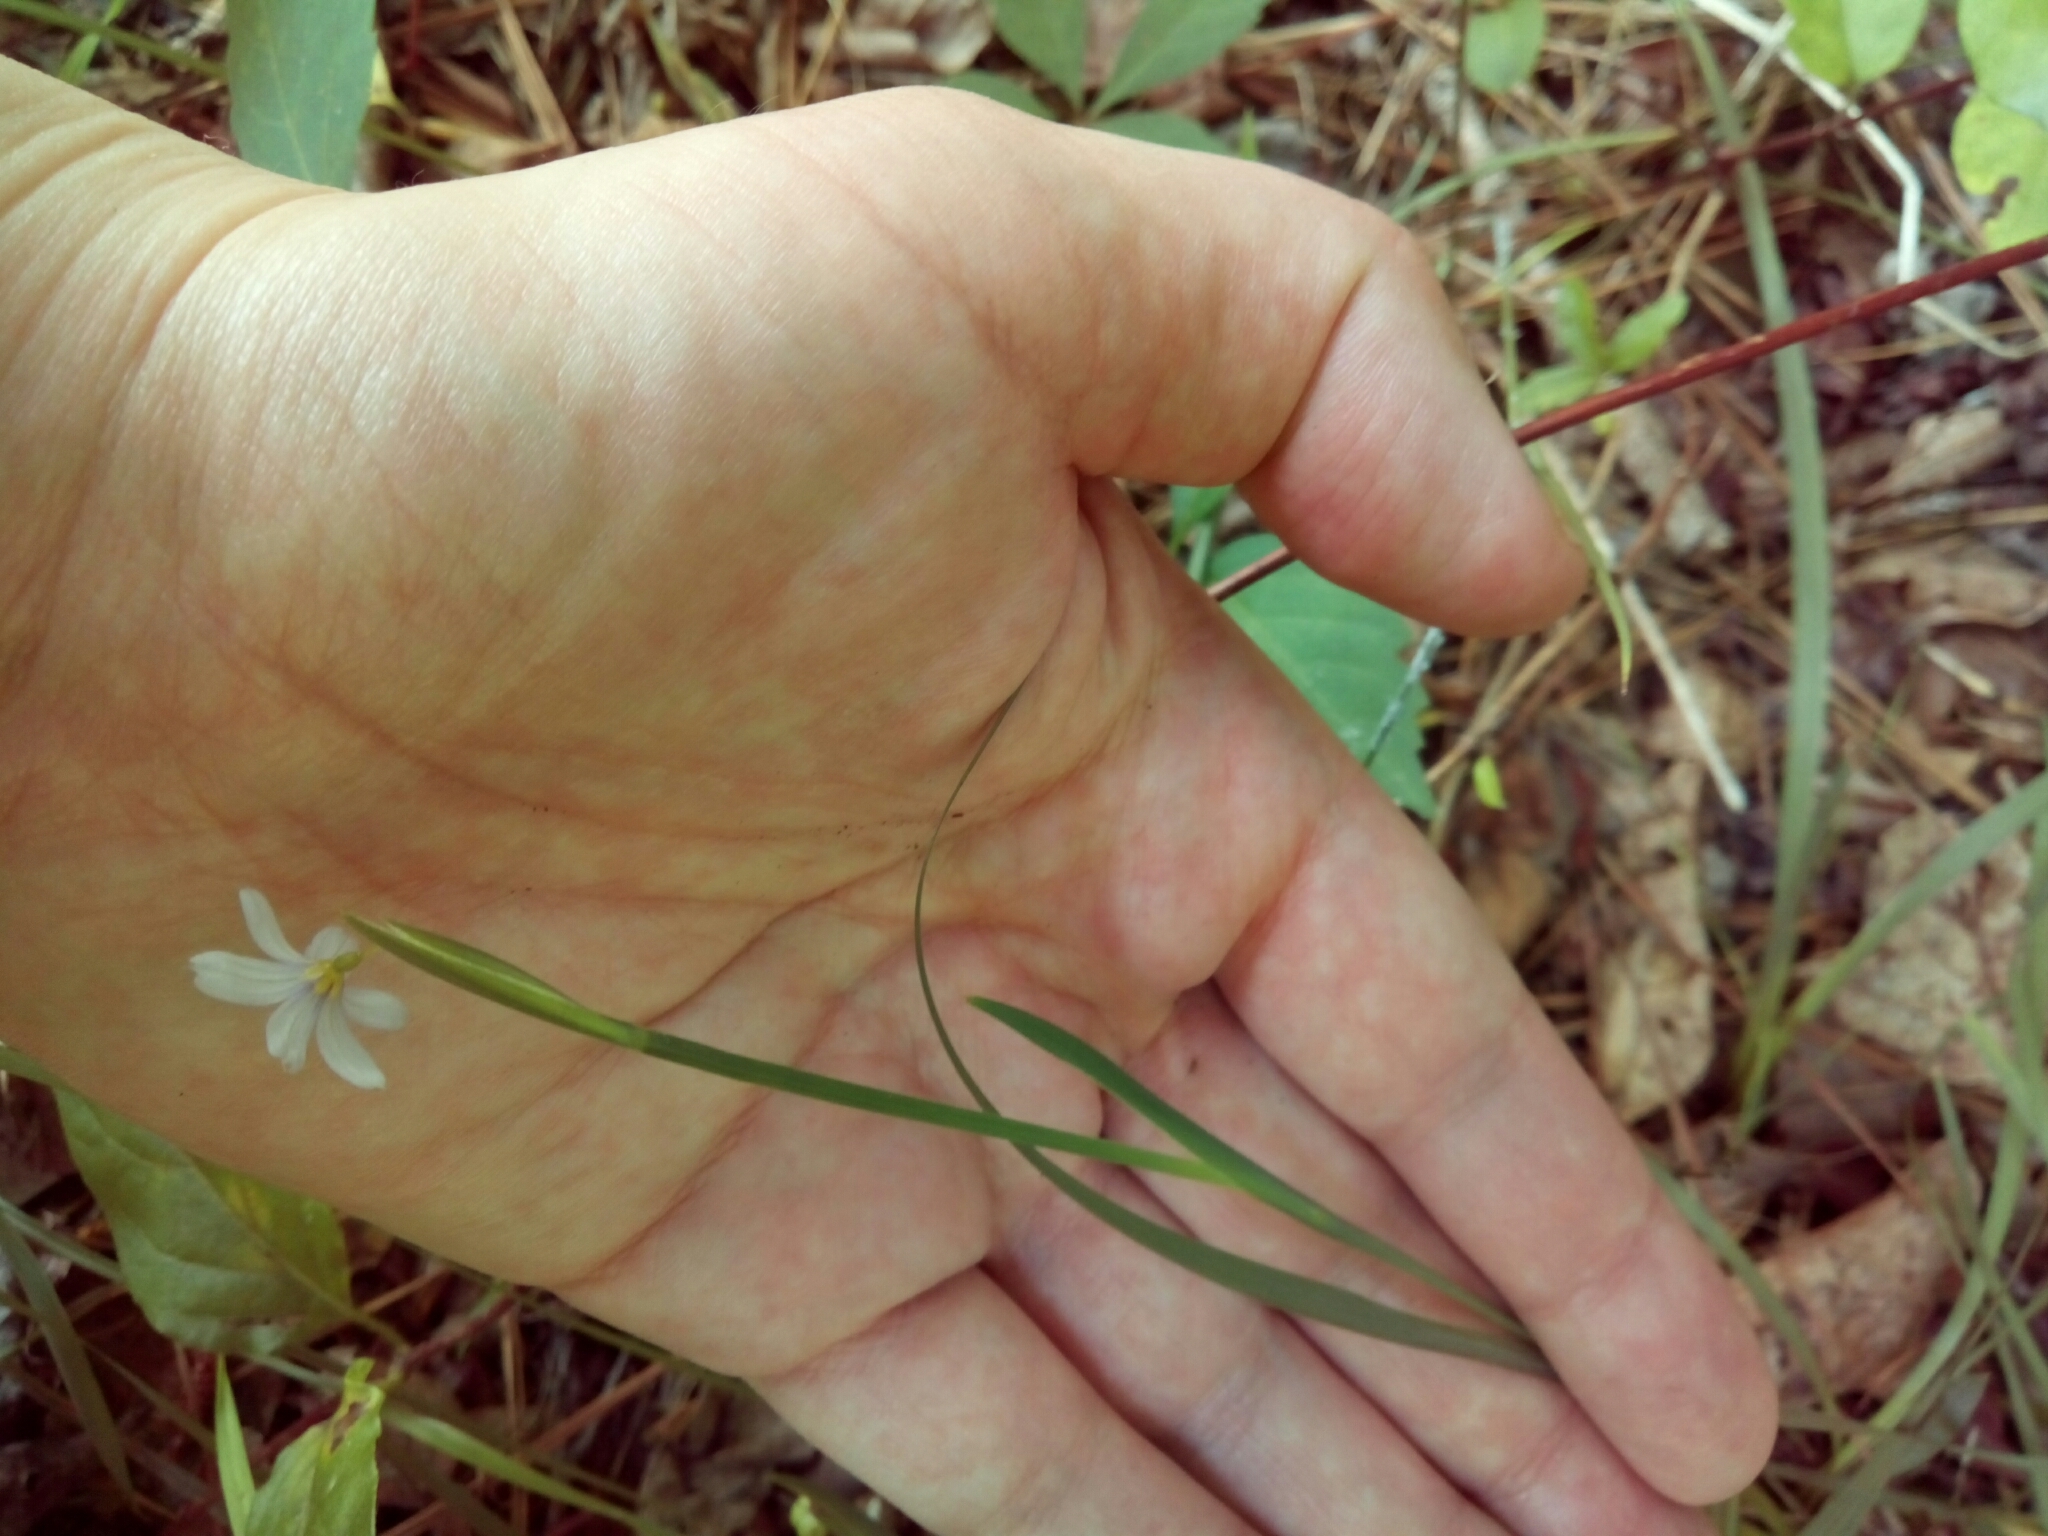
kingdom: Plantae
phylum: Tracheophyta
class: Liliopsida
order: Asparagales
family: Iridaceae
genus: Sisyrinchium
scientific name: Sisyrinchium angustifolium
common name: Narrow-leaf blue-eyed-grass
